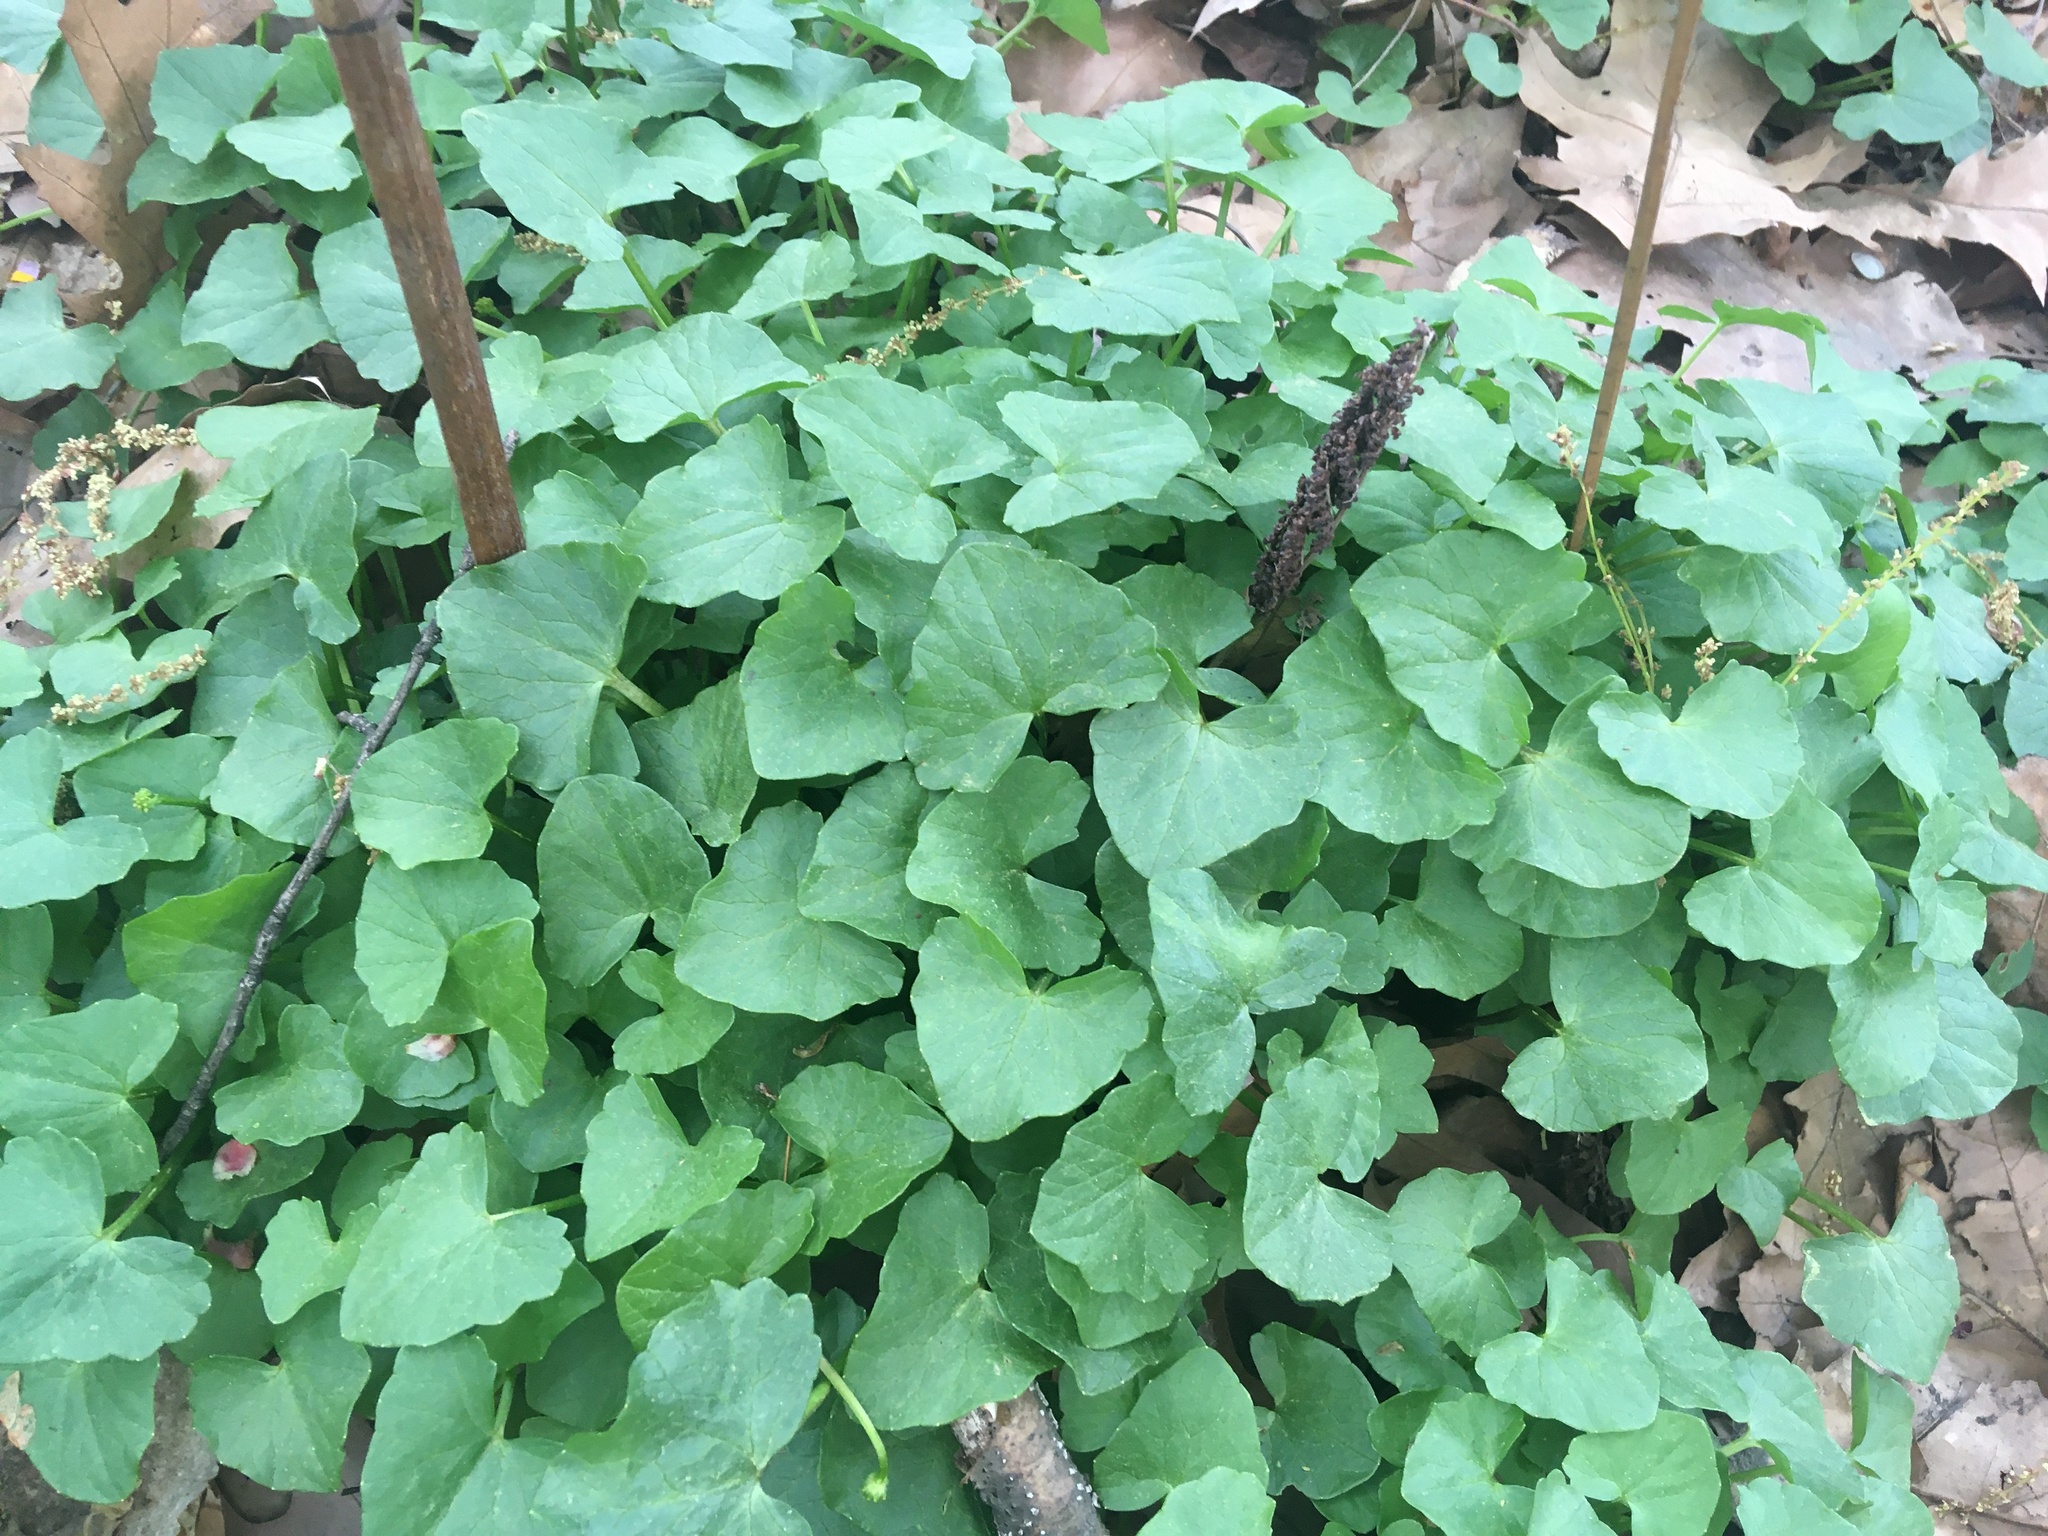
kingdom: Plantae
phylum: Tracheophyta
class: Magnoliopsida
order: Ranunculales
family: Ranunculaceae
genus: Ficaria
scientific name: Ficaria verna
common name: Lesser celandine
